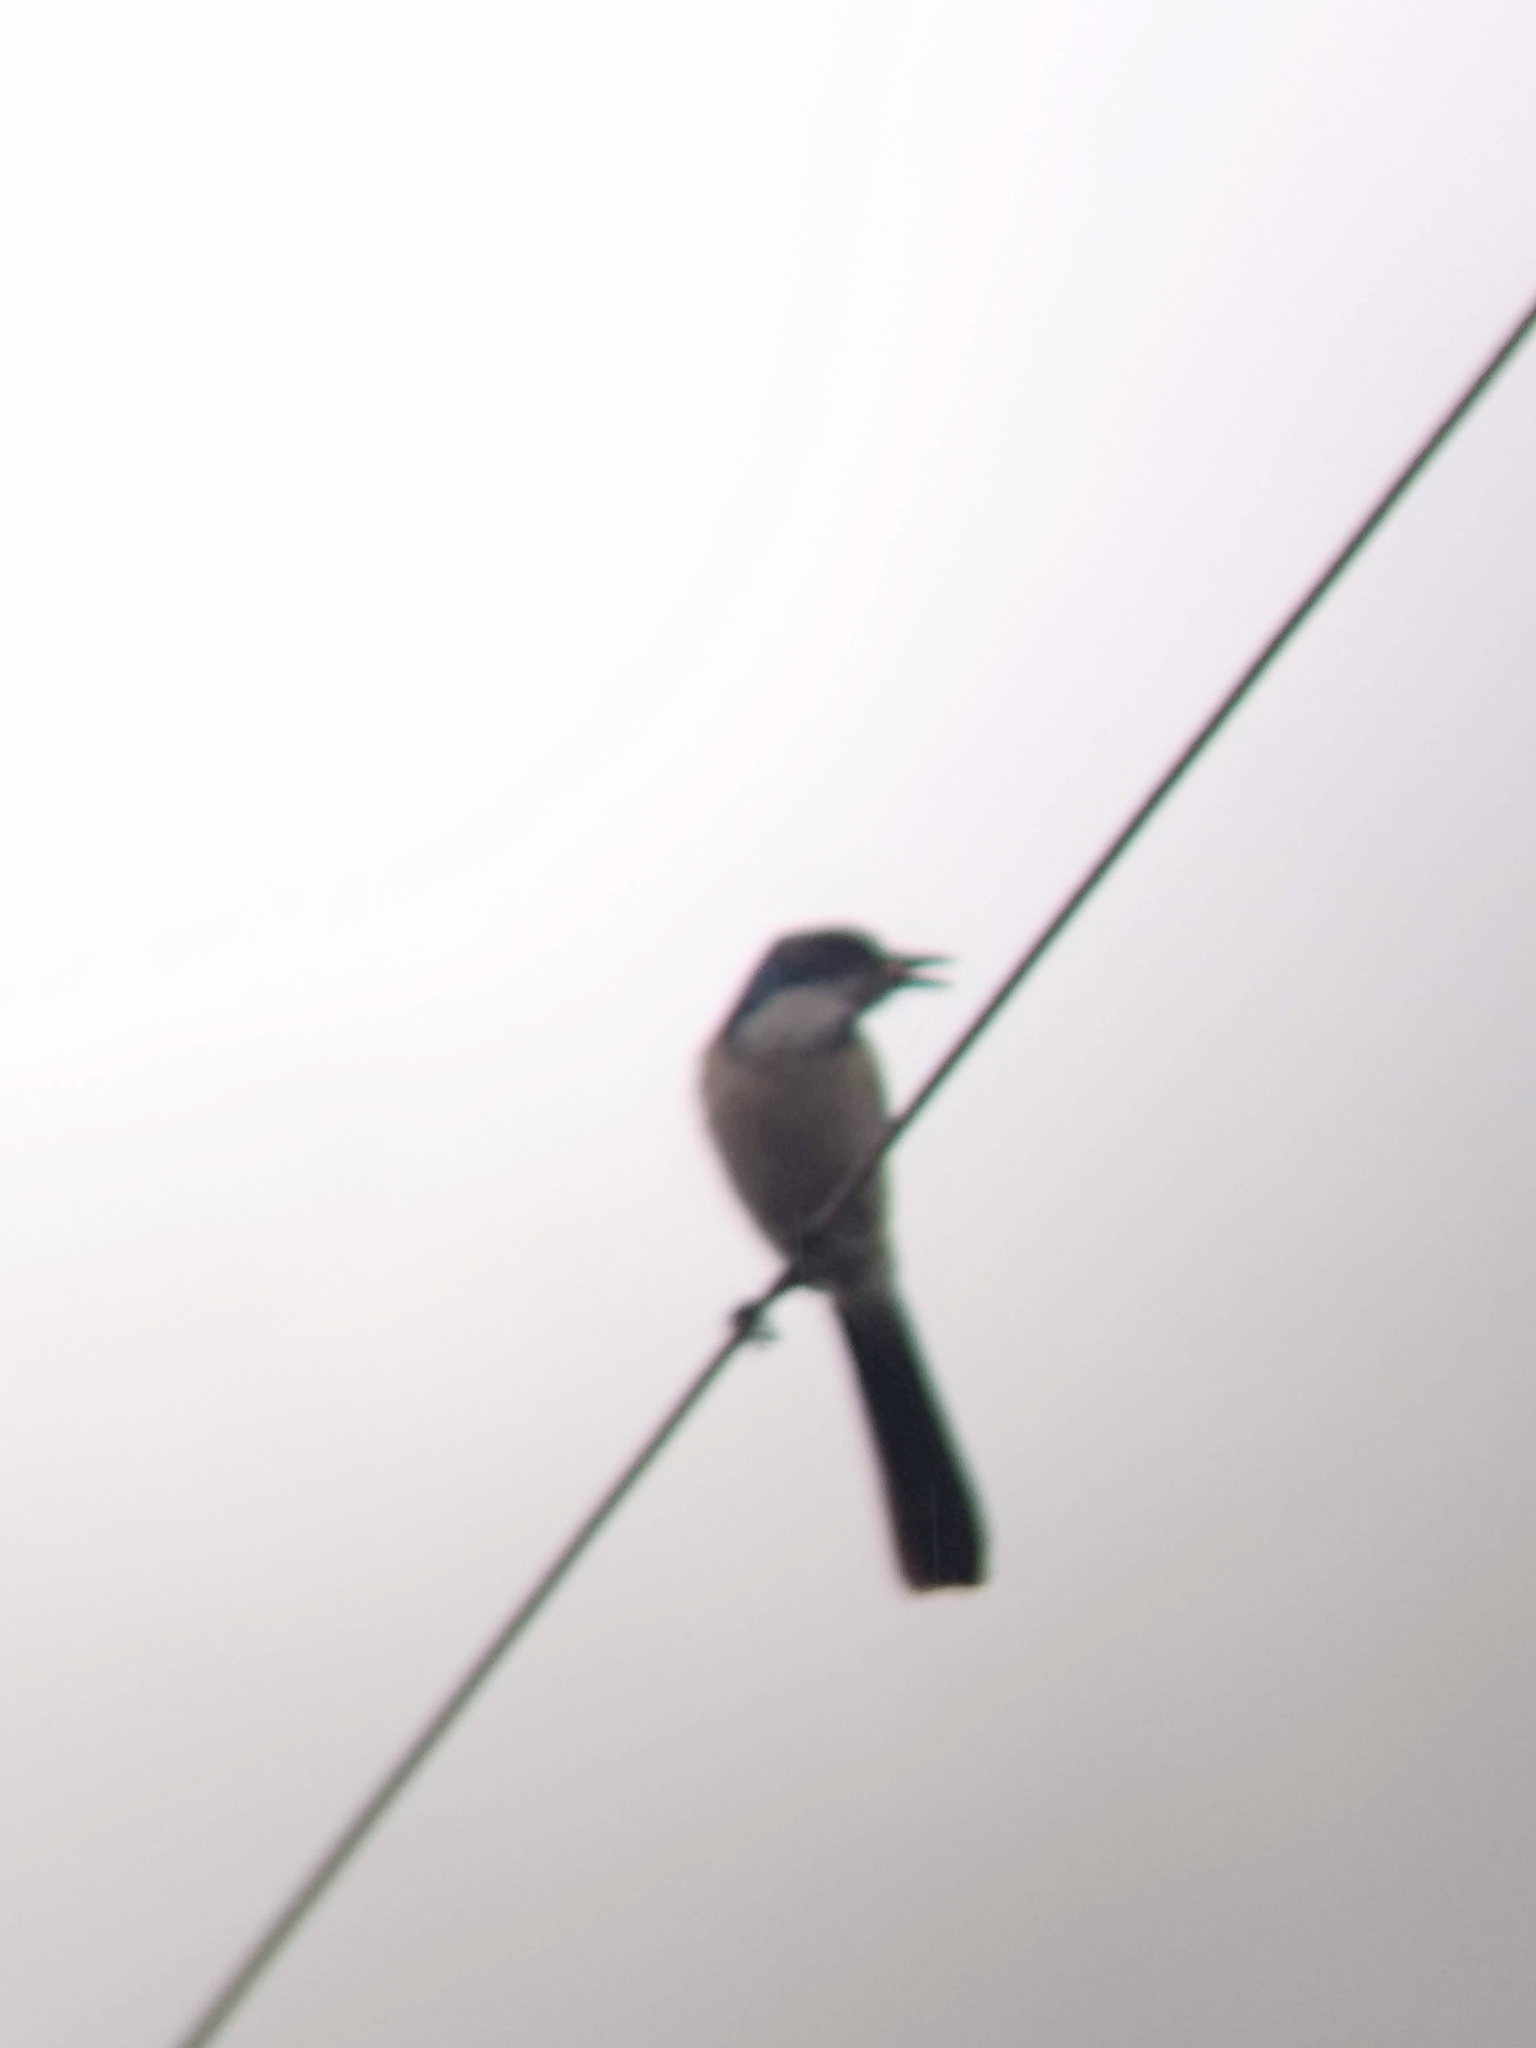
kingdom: Animalia
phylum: Chordata
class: Aves
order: Passeriformes
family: Corvidae
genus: Aphelocoma
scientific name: Aphelocoma californica
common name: California scrub-jay
